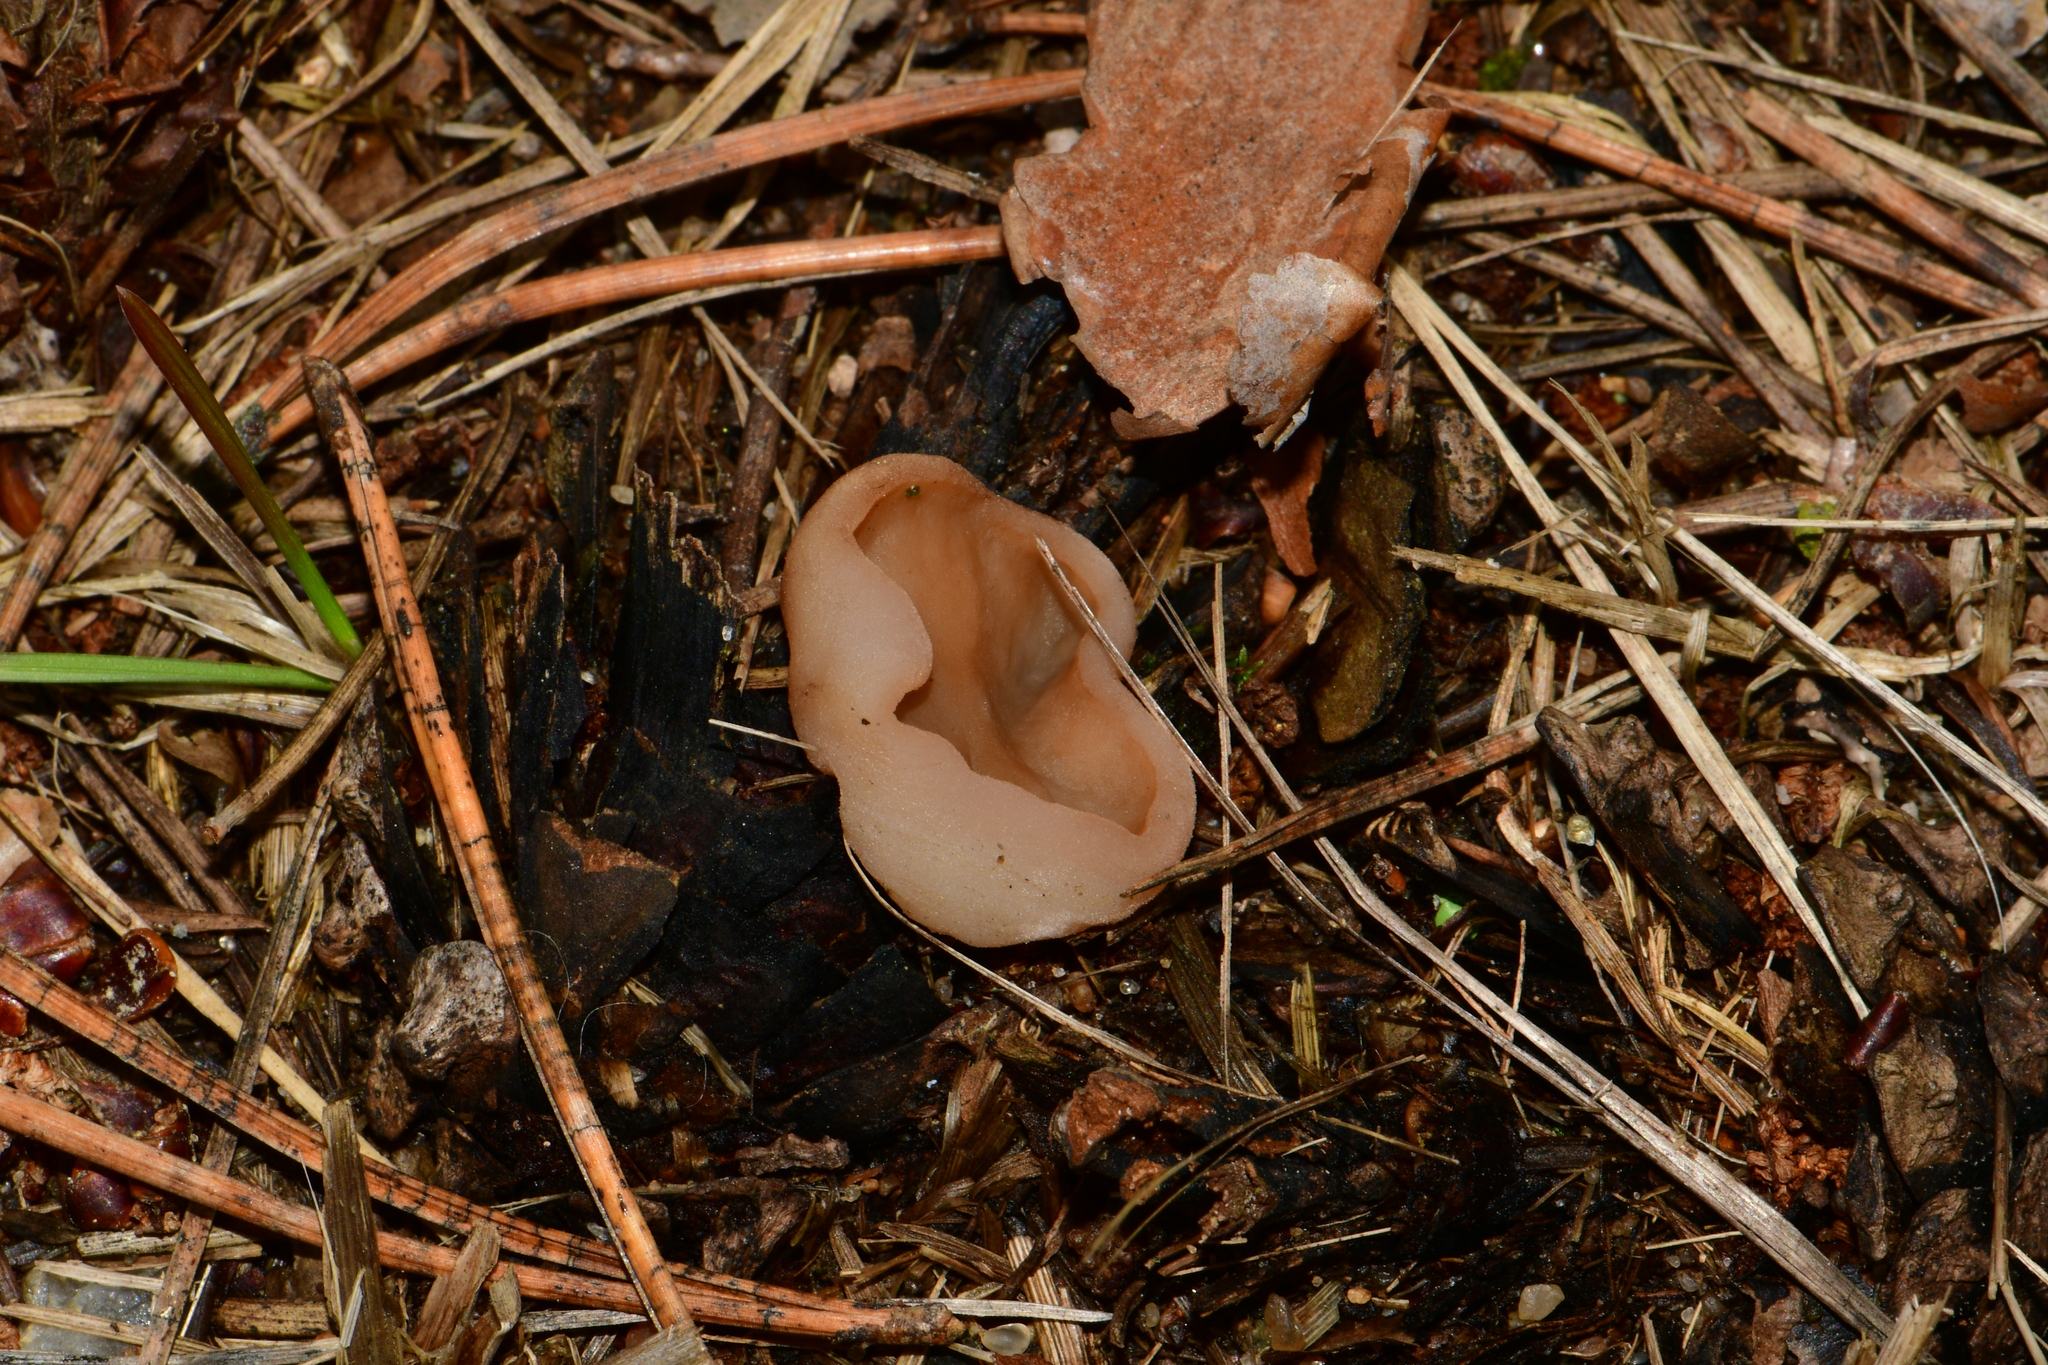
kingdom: Fungi
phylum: Ascomycota
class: Pezizomycetes
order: Pezizales
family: Discinaceae
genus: Discina
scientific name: Discina ancilis
